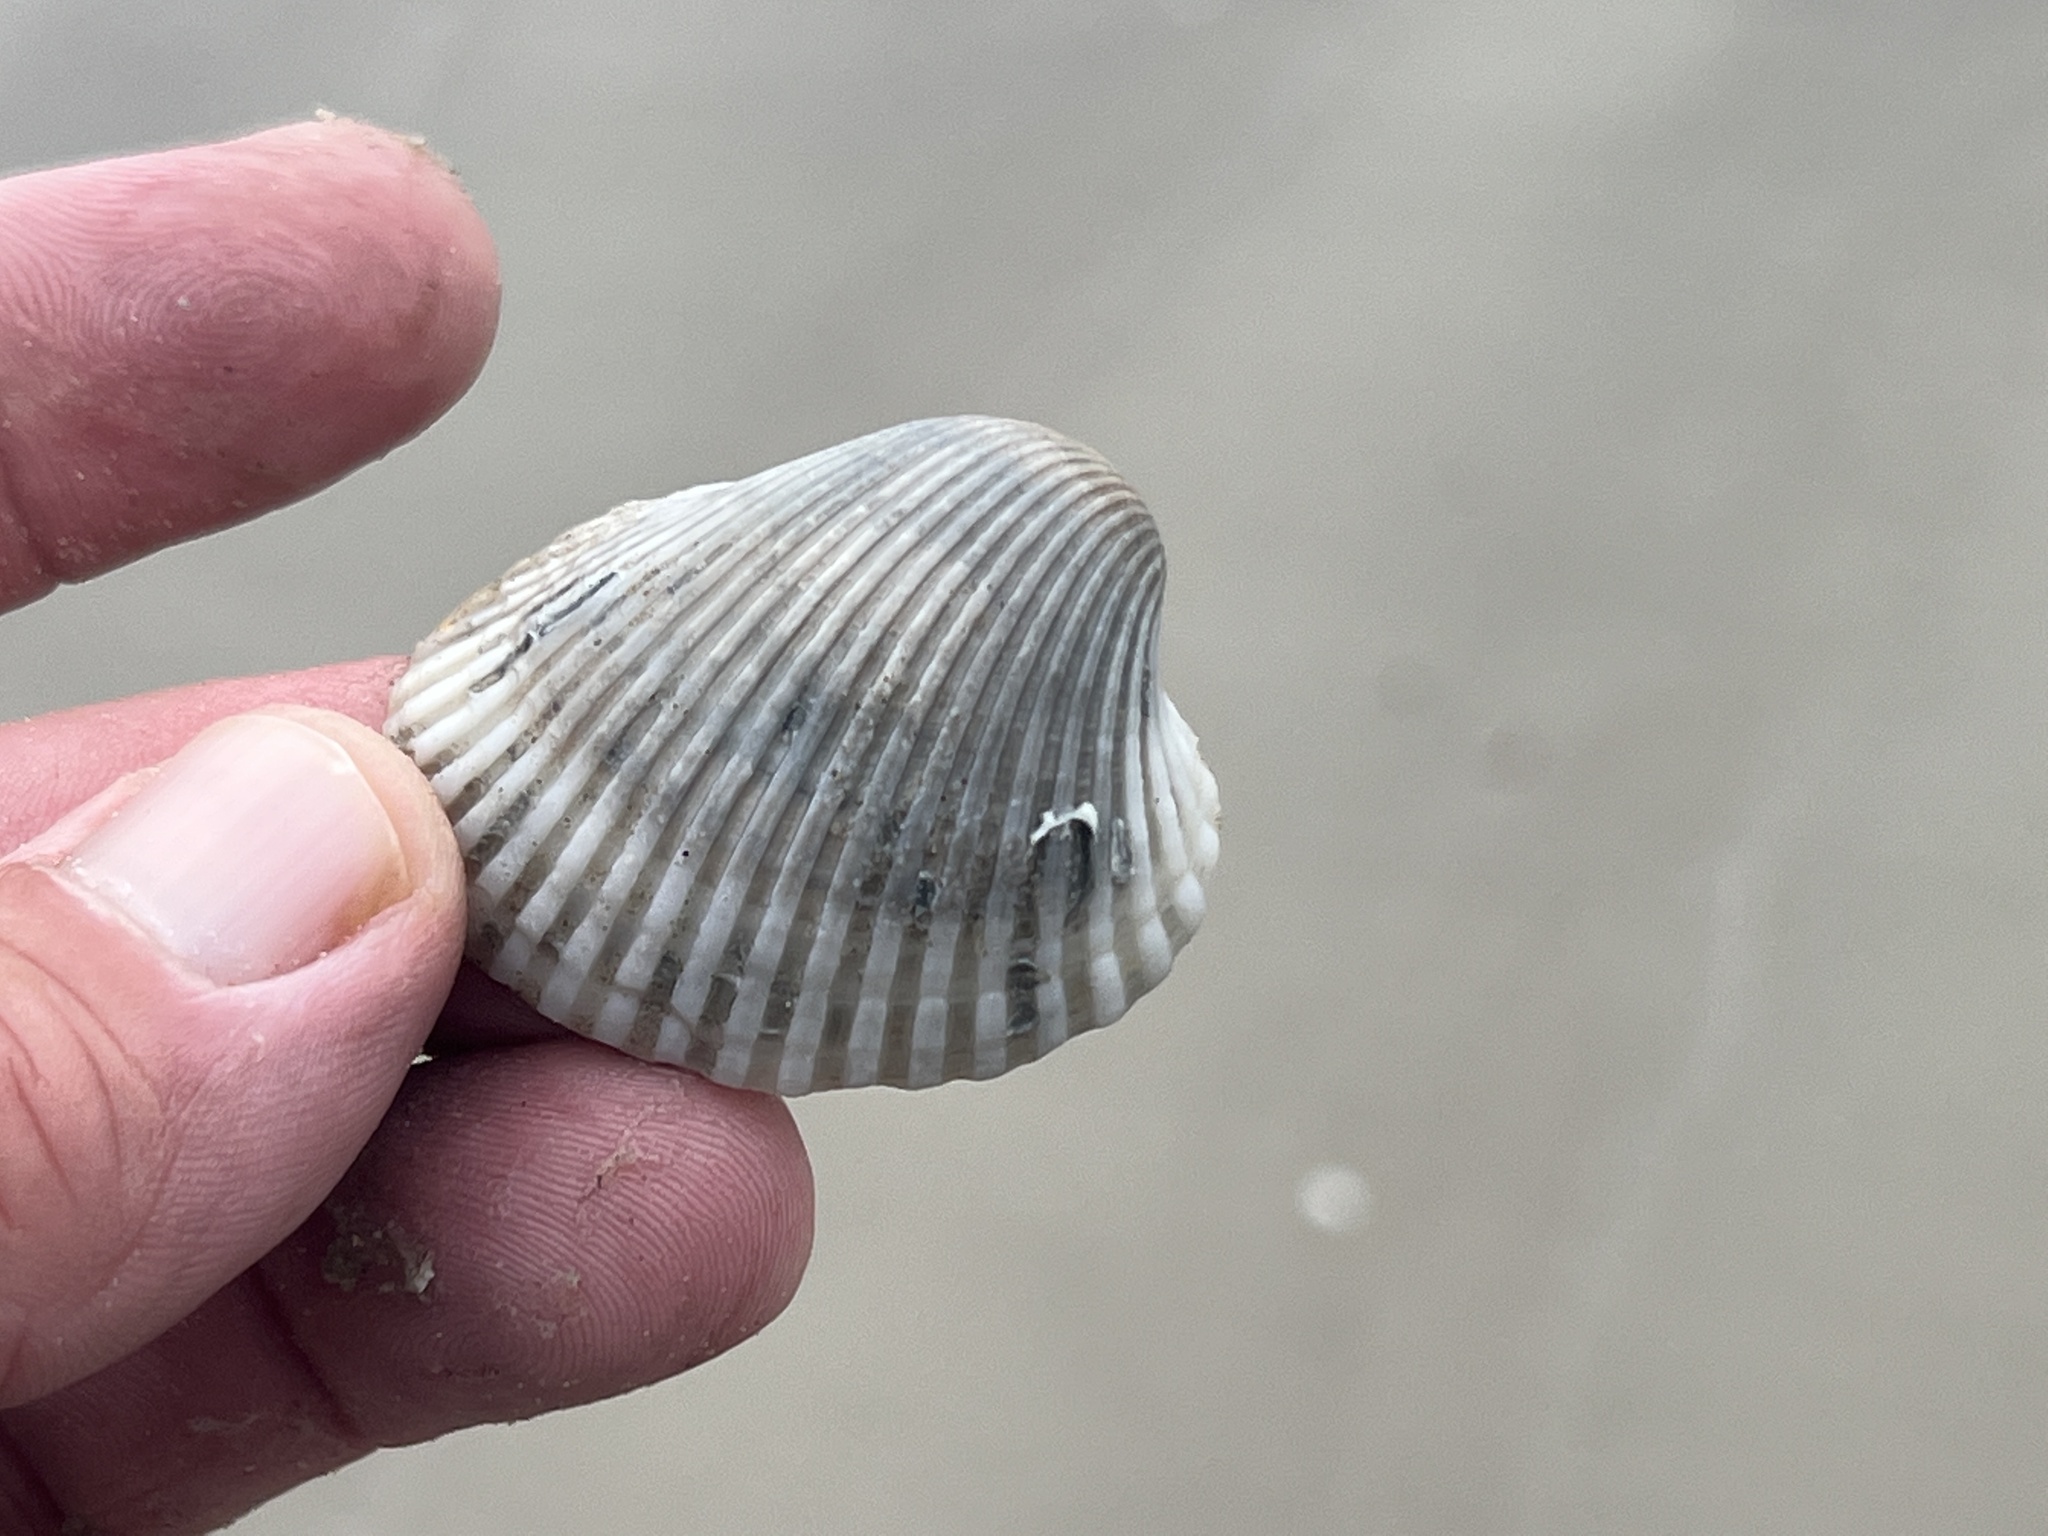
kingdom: Animalia
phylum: Mollusca
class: Bivalvia
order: Arcida
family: Arcidae
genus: Lunarca
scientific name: Lunarca ovalis
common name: Blood ark
